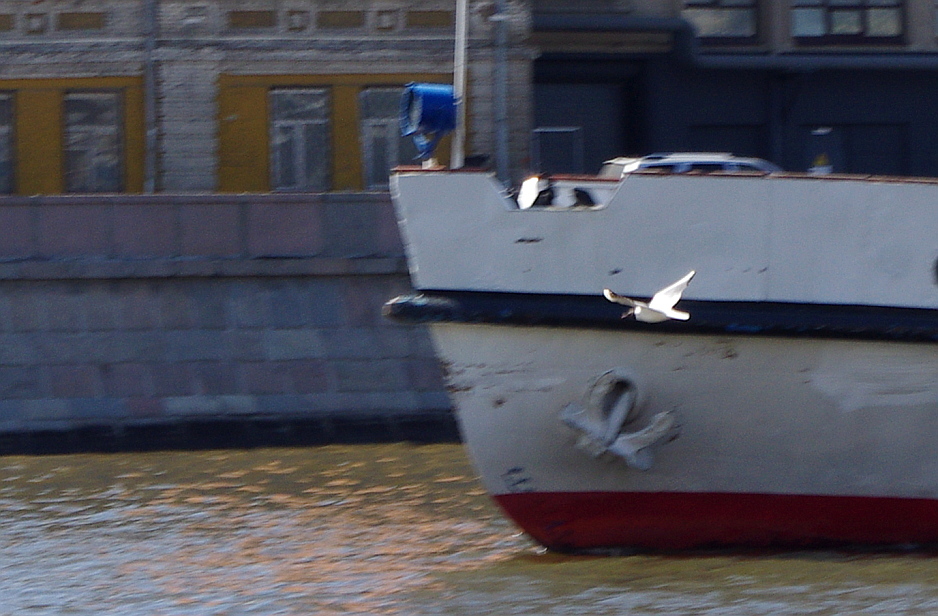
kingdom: Animalia
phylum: Chordata
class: Aves
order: Charadriiformes
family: Laridae
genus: Chroicocephalus
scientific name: Chroicocephalus ridibundus
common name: Black-headed gull
